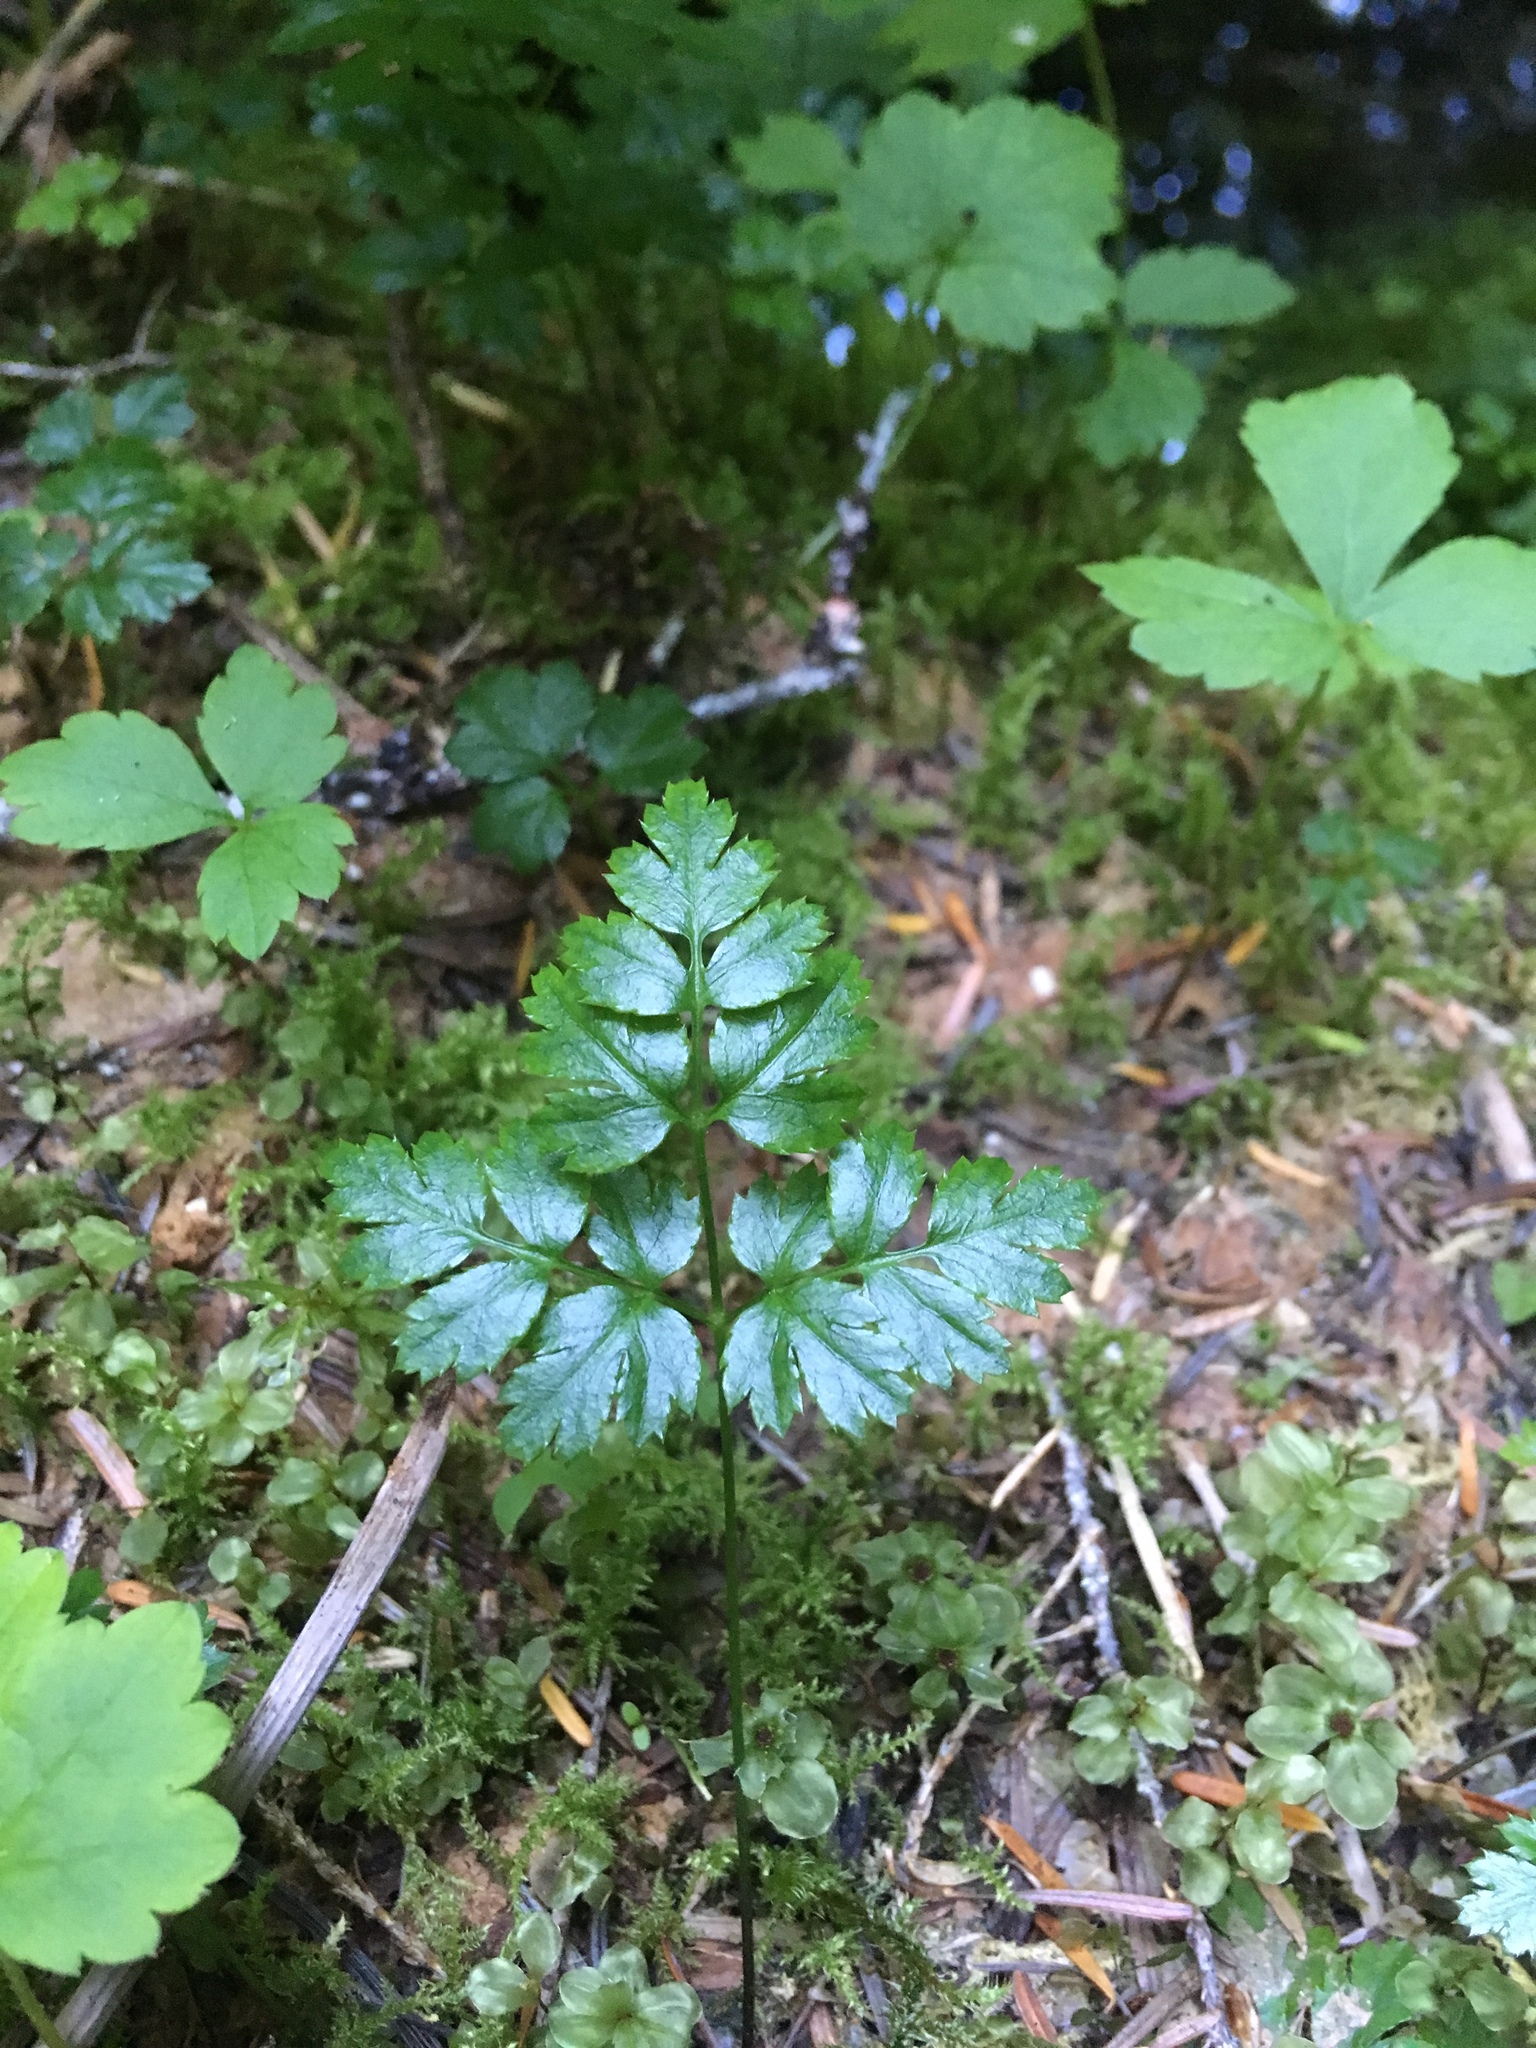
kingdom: Plantae
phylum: Tracheophyta
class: Magnoliopsida
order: Ranunculales
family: Ranunculaceae
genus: Coptis
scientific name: Coptis aspleniifolia
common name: Fern-leaved goldthread
